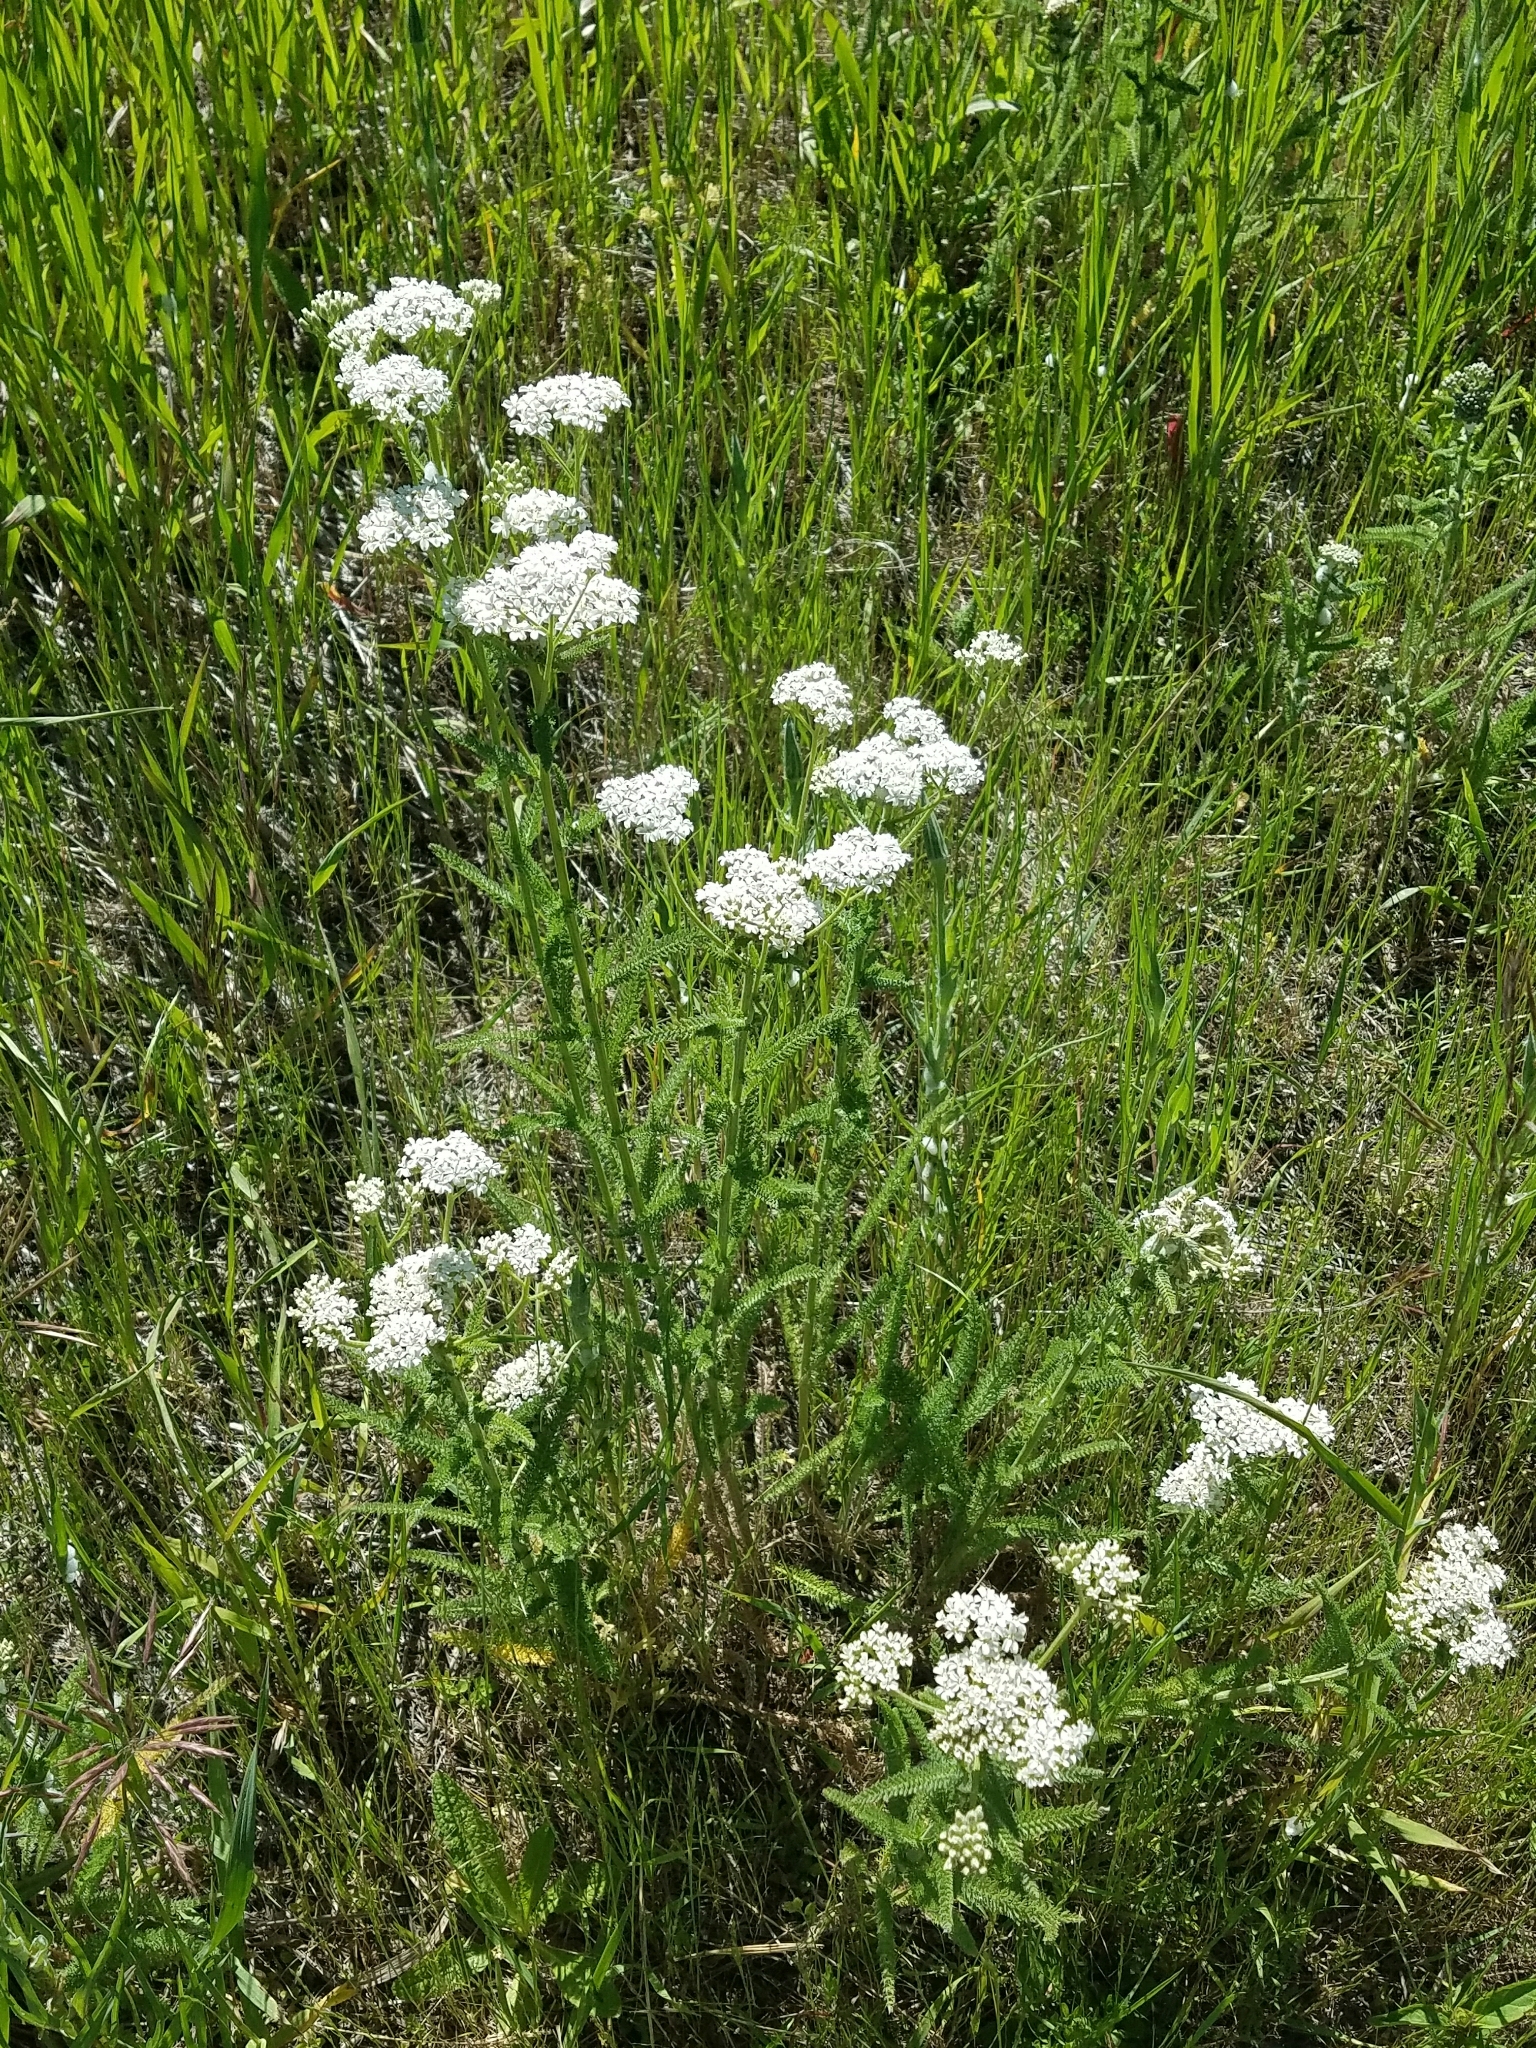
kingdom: Plantae
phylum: Tracheophyta
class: Magnoliopsida
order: Asterales
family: Asteraceae
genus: Achillea
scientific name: Achillea millefolium
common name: Yarrow
